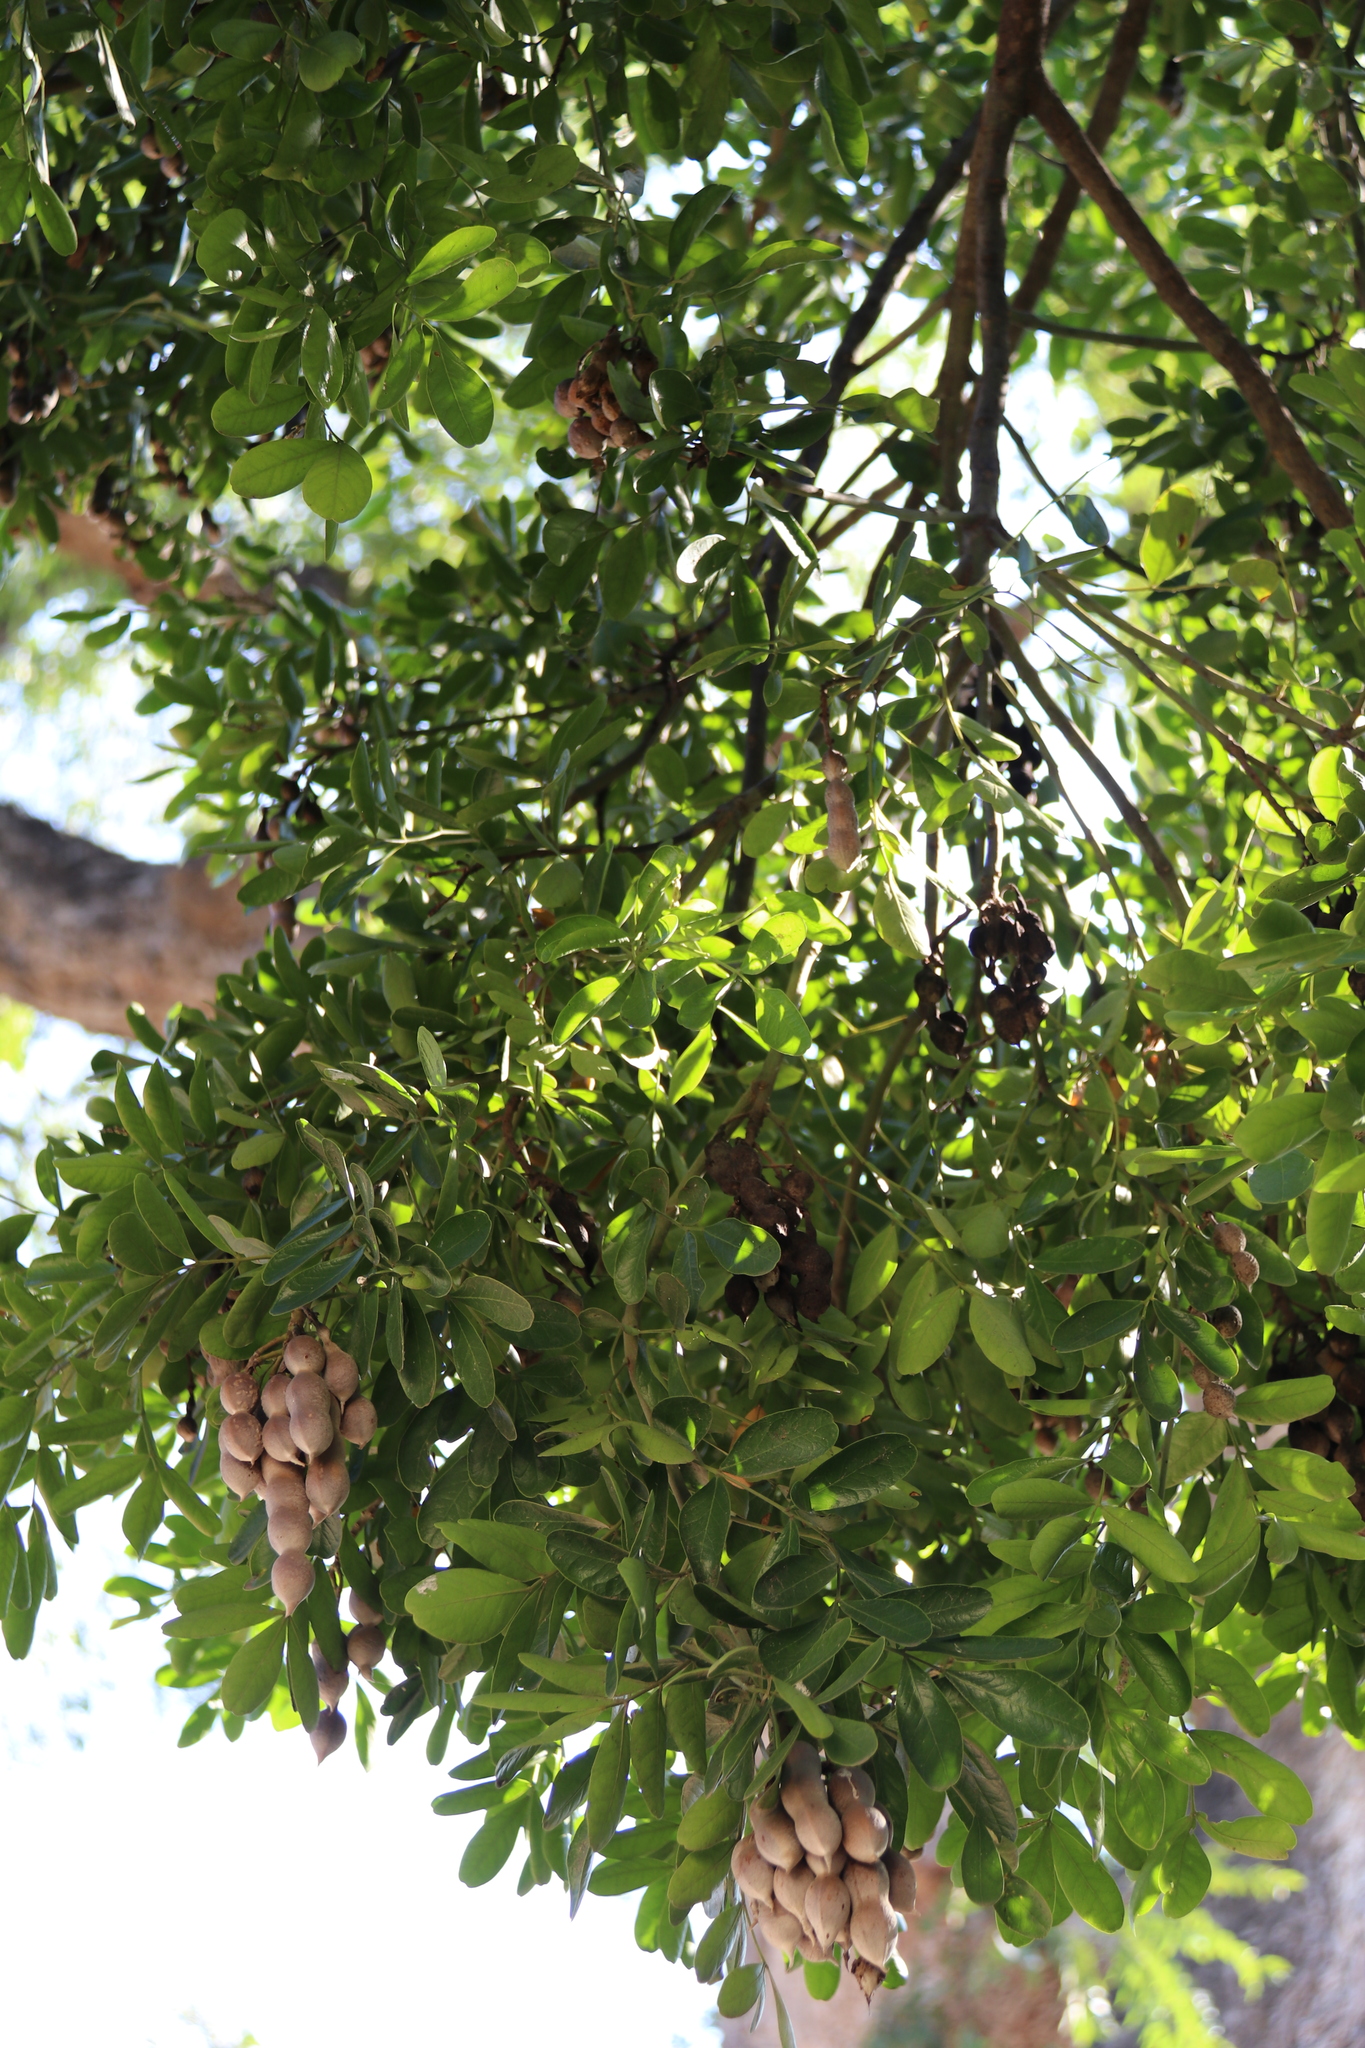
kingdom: Plantae
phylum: Tracheophyta
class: Magnoliopsida
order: Fabales
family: Fabaceae
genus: Dermatophyllum
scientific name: Dermatophyllum secundiflorum
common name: Texas-mountain-laurel
